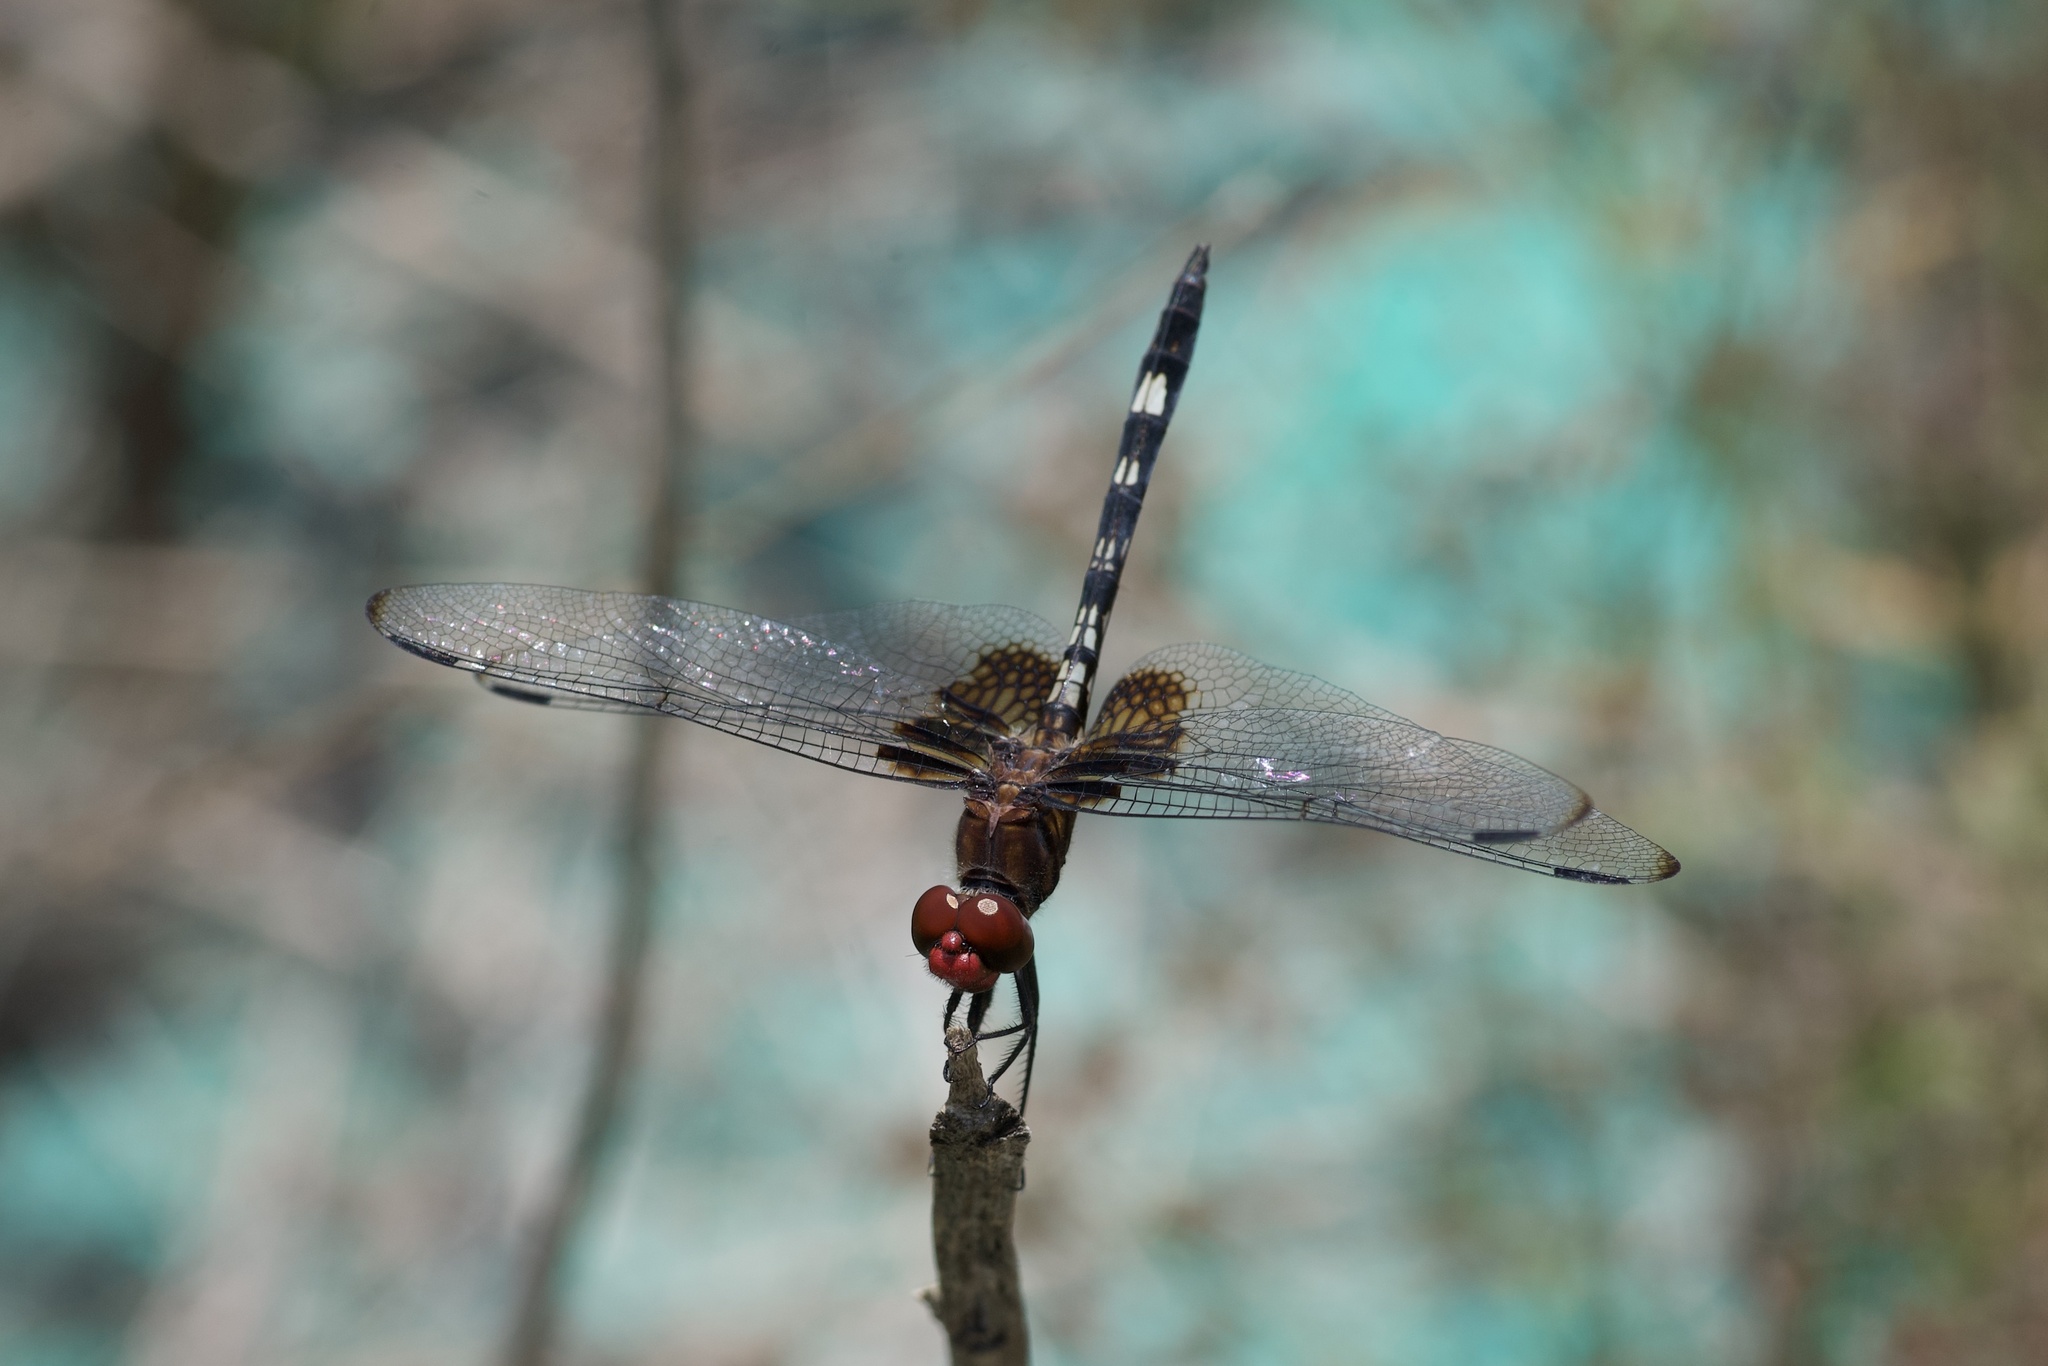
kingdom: Animalia
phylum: Arthropoda
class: Insecta
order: Odonata
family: Libellulidae
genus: Dythemis
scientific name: Dythemis fugax
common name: Checkered setwing
